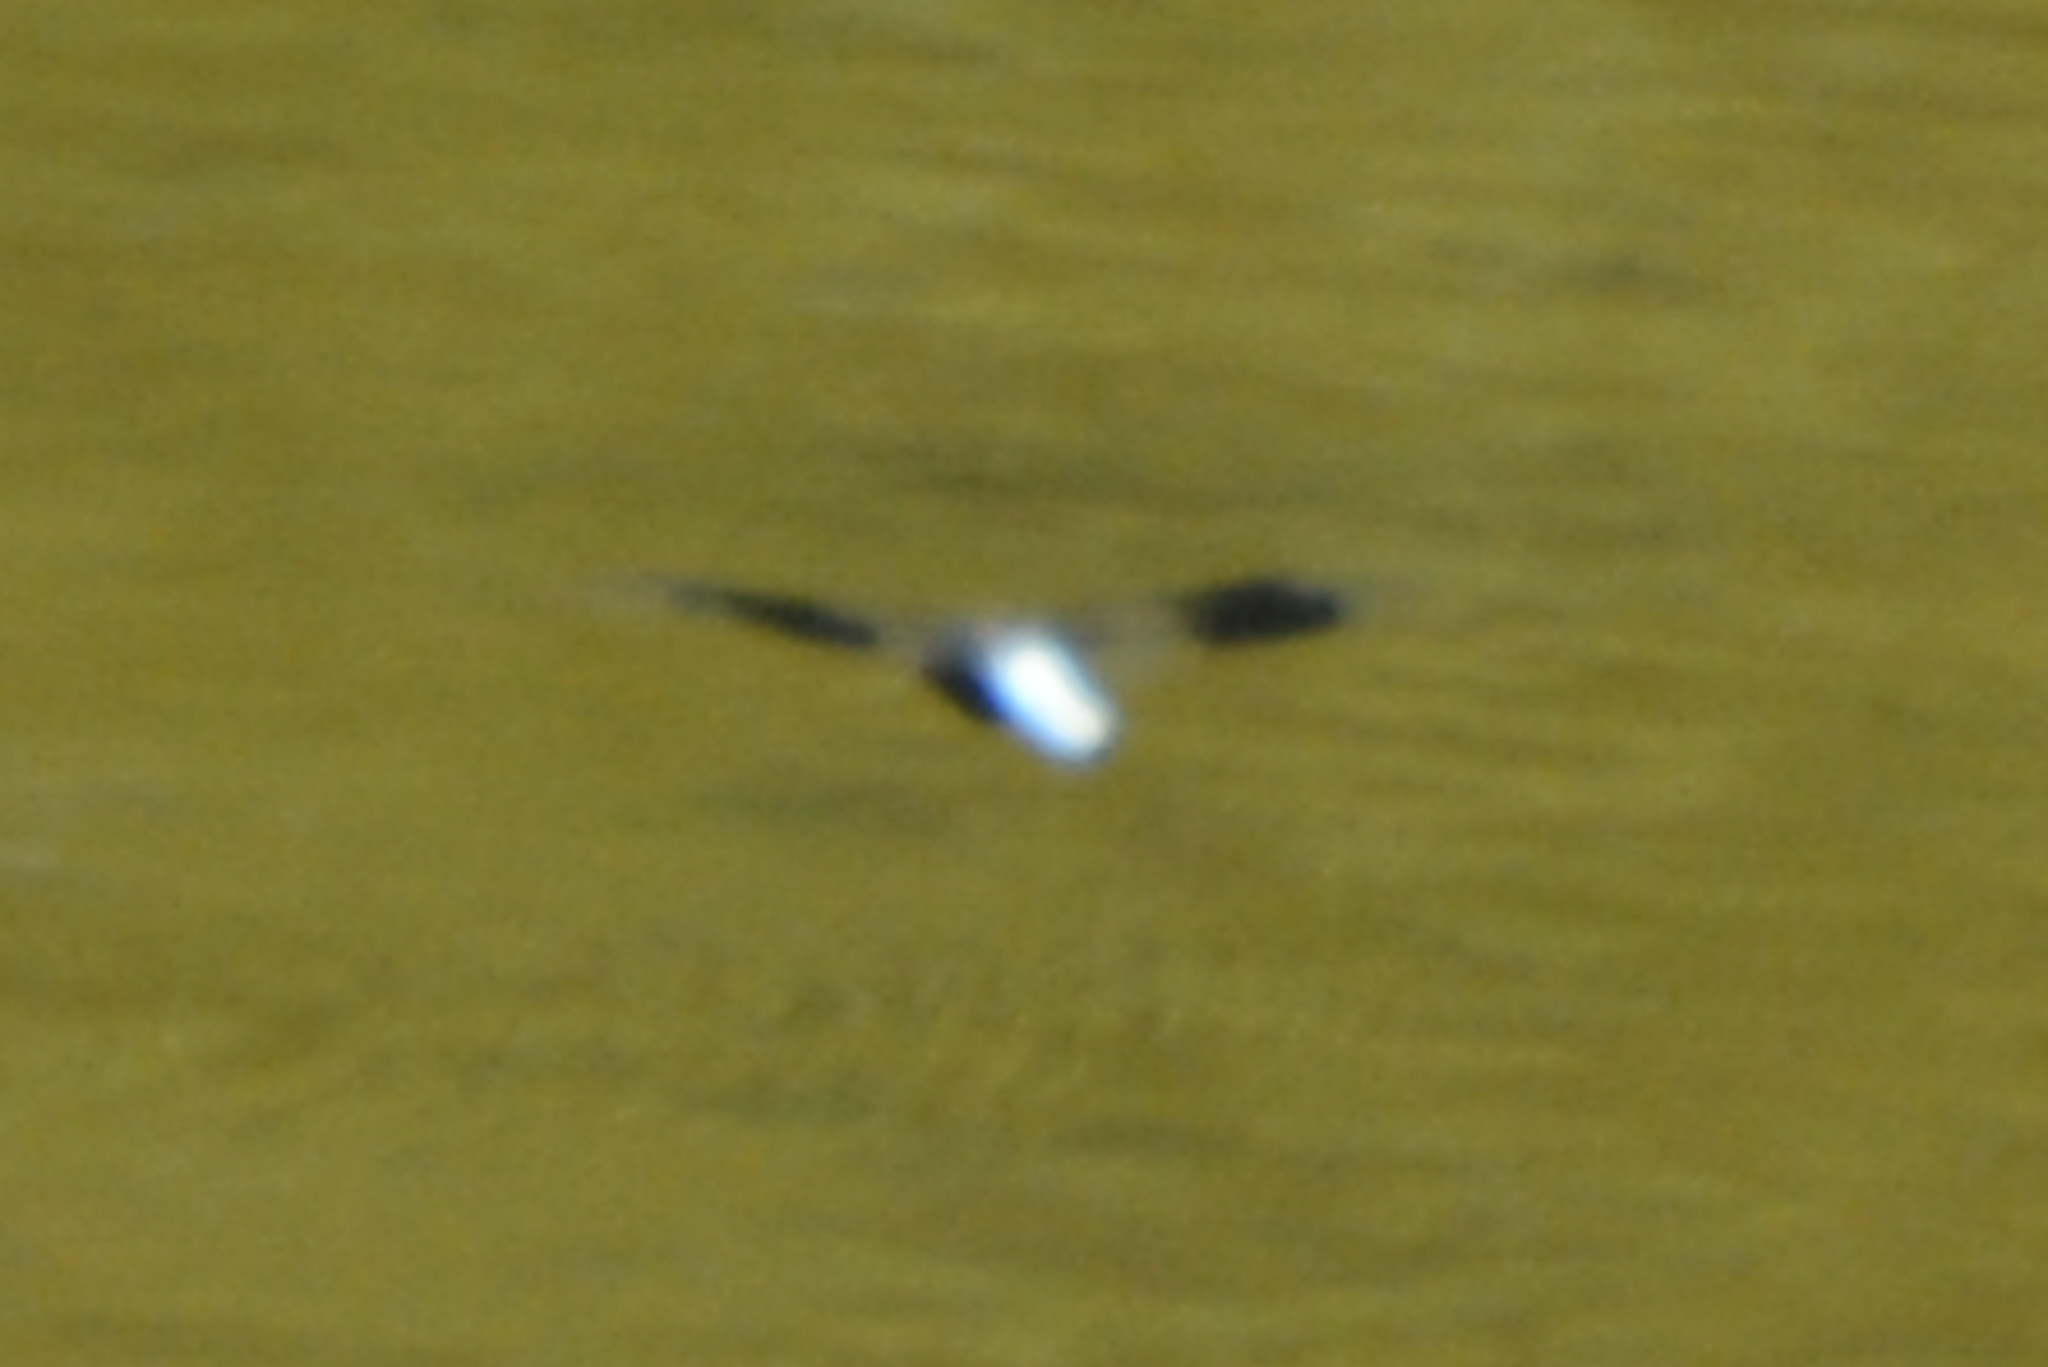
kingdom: Animalia
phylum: Arthropoda
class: Insecta
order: Odonata
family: Libellulidae
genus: Plathemis
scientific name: Plathemis lydia
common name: Common whitetail
